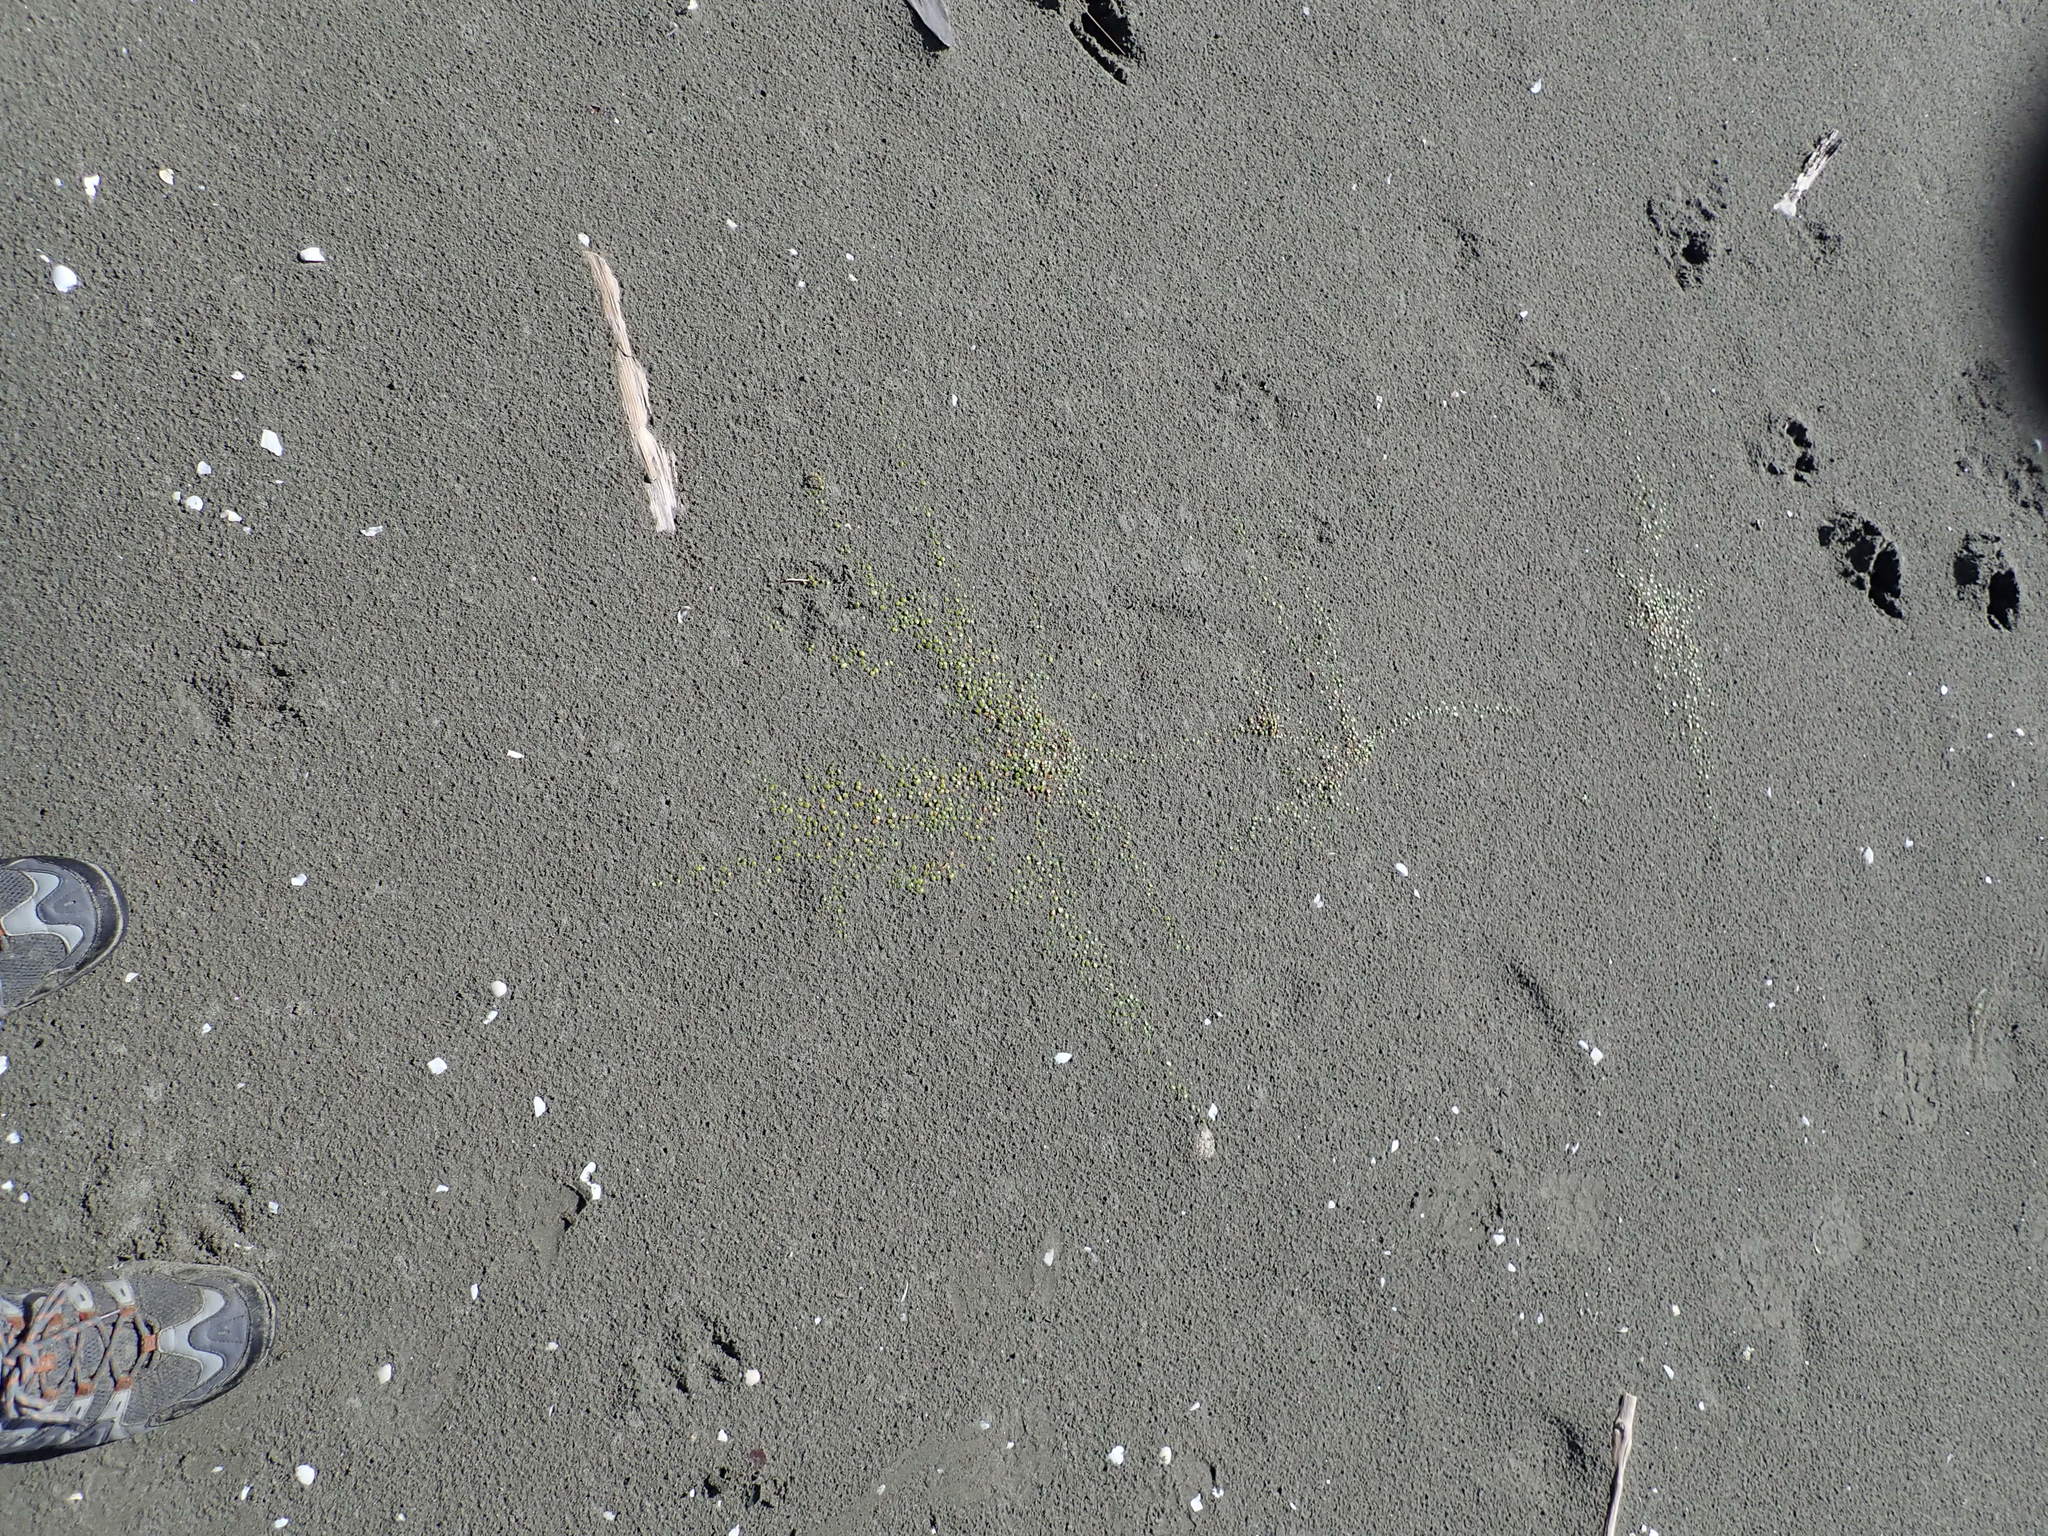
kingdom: Plantae
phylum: Tracheophyta
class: Magnoliopsida
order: Asterales
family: Goodeniaceae
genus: Goodenia
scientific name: Goodenia heenanii
